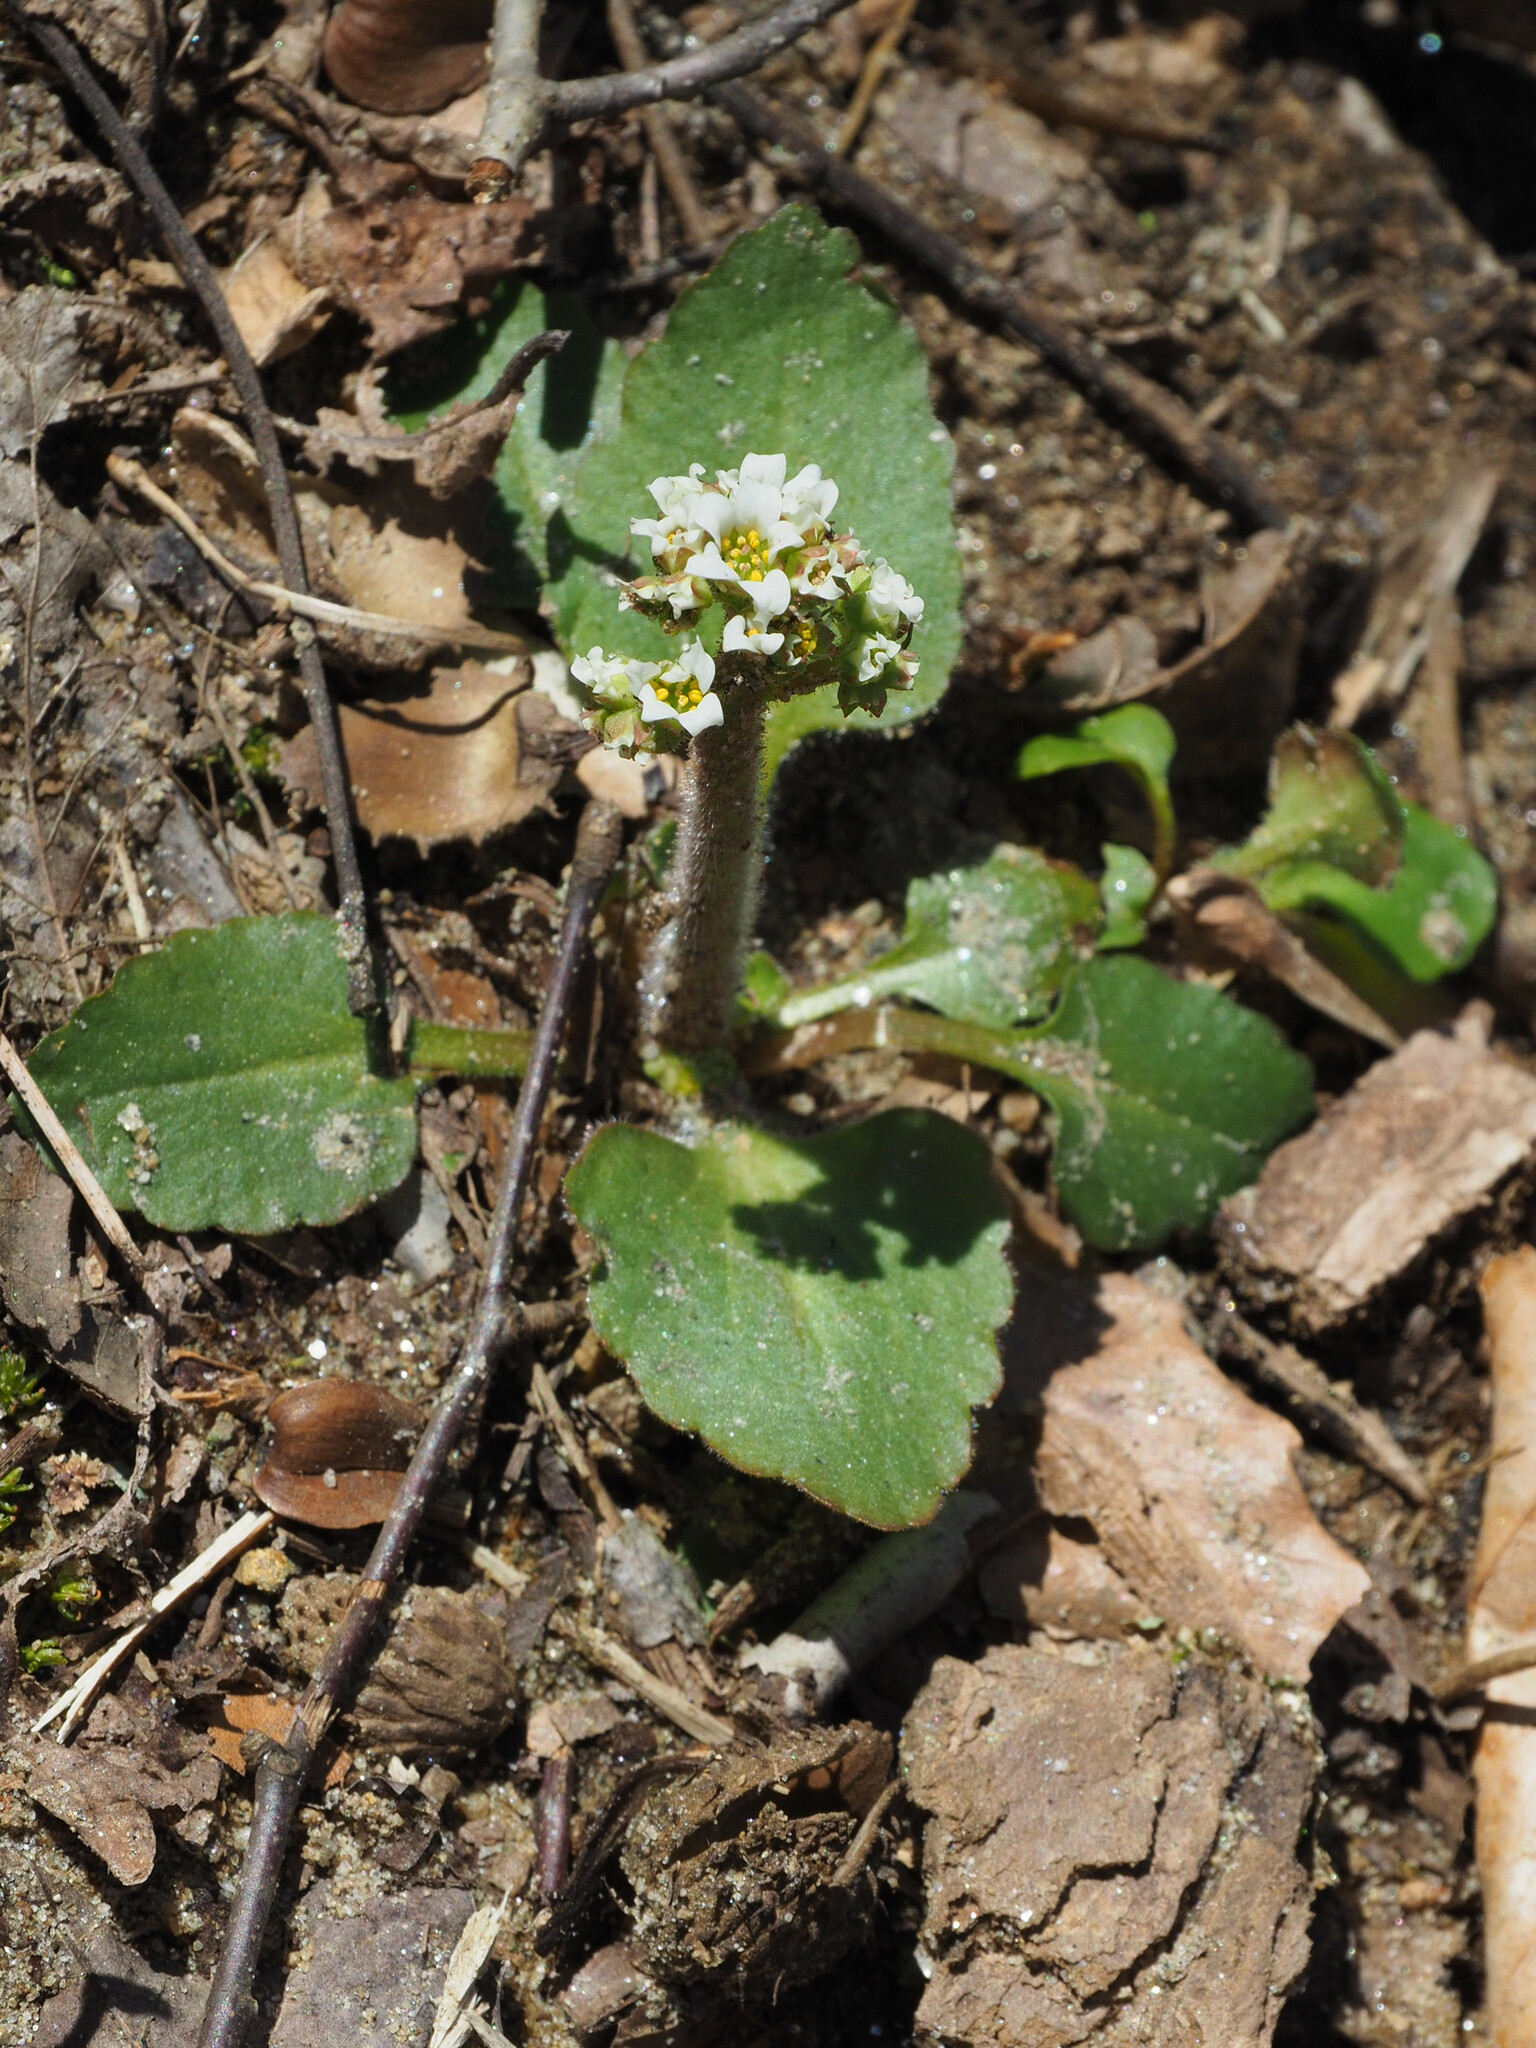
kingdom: Plantae
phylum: Tracheophyta
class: Magnoliopsida
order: Saxifragales
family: Saxifragaceae
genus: Micranthes
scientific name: Micranthes virginiensis
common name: Early saxifrage
